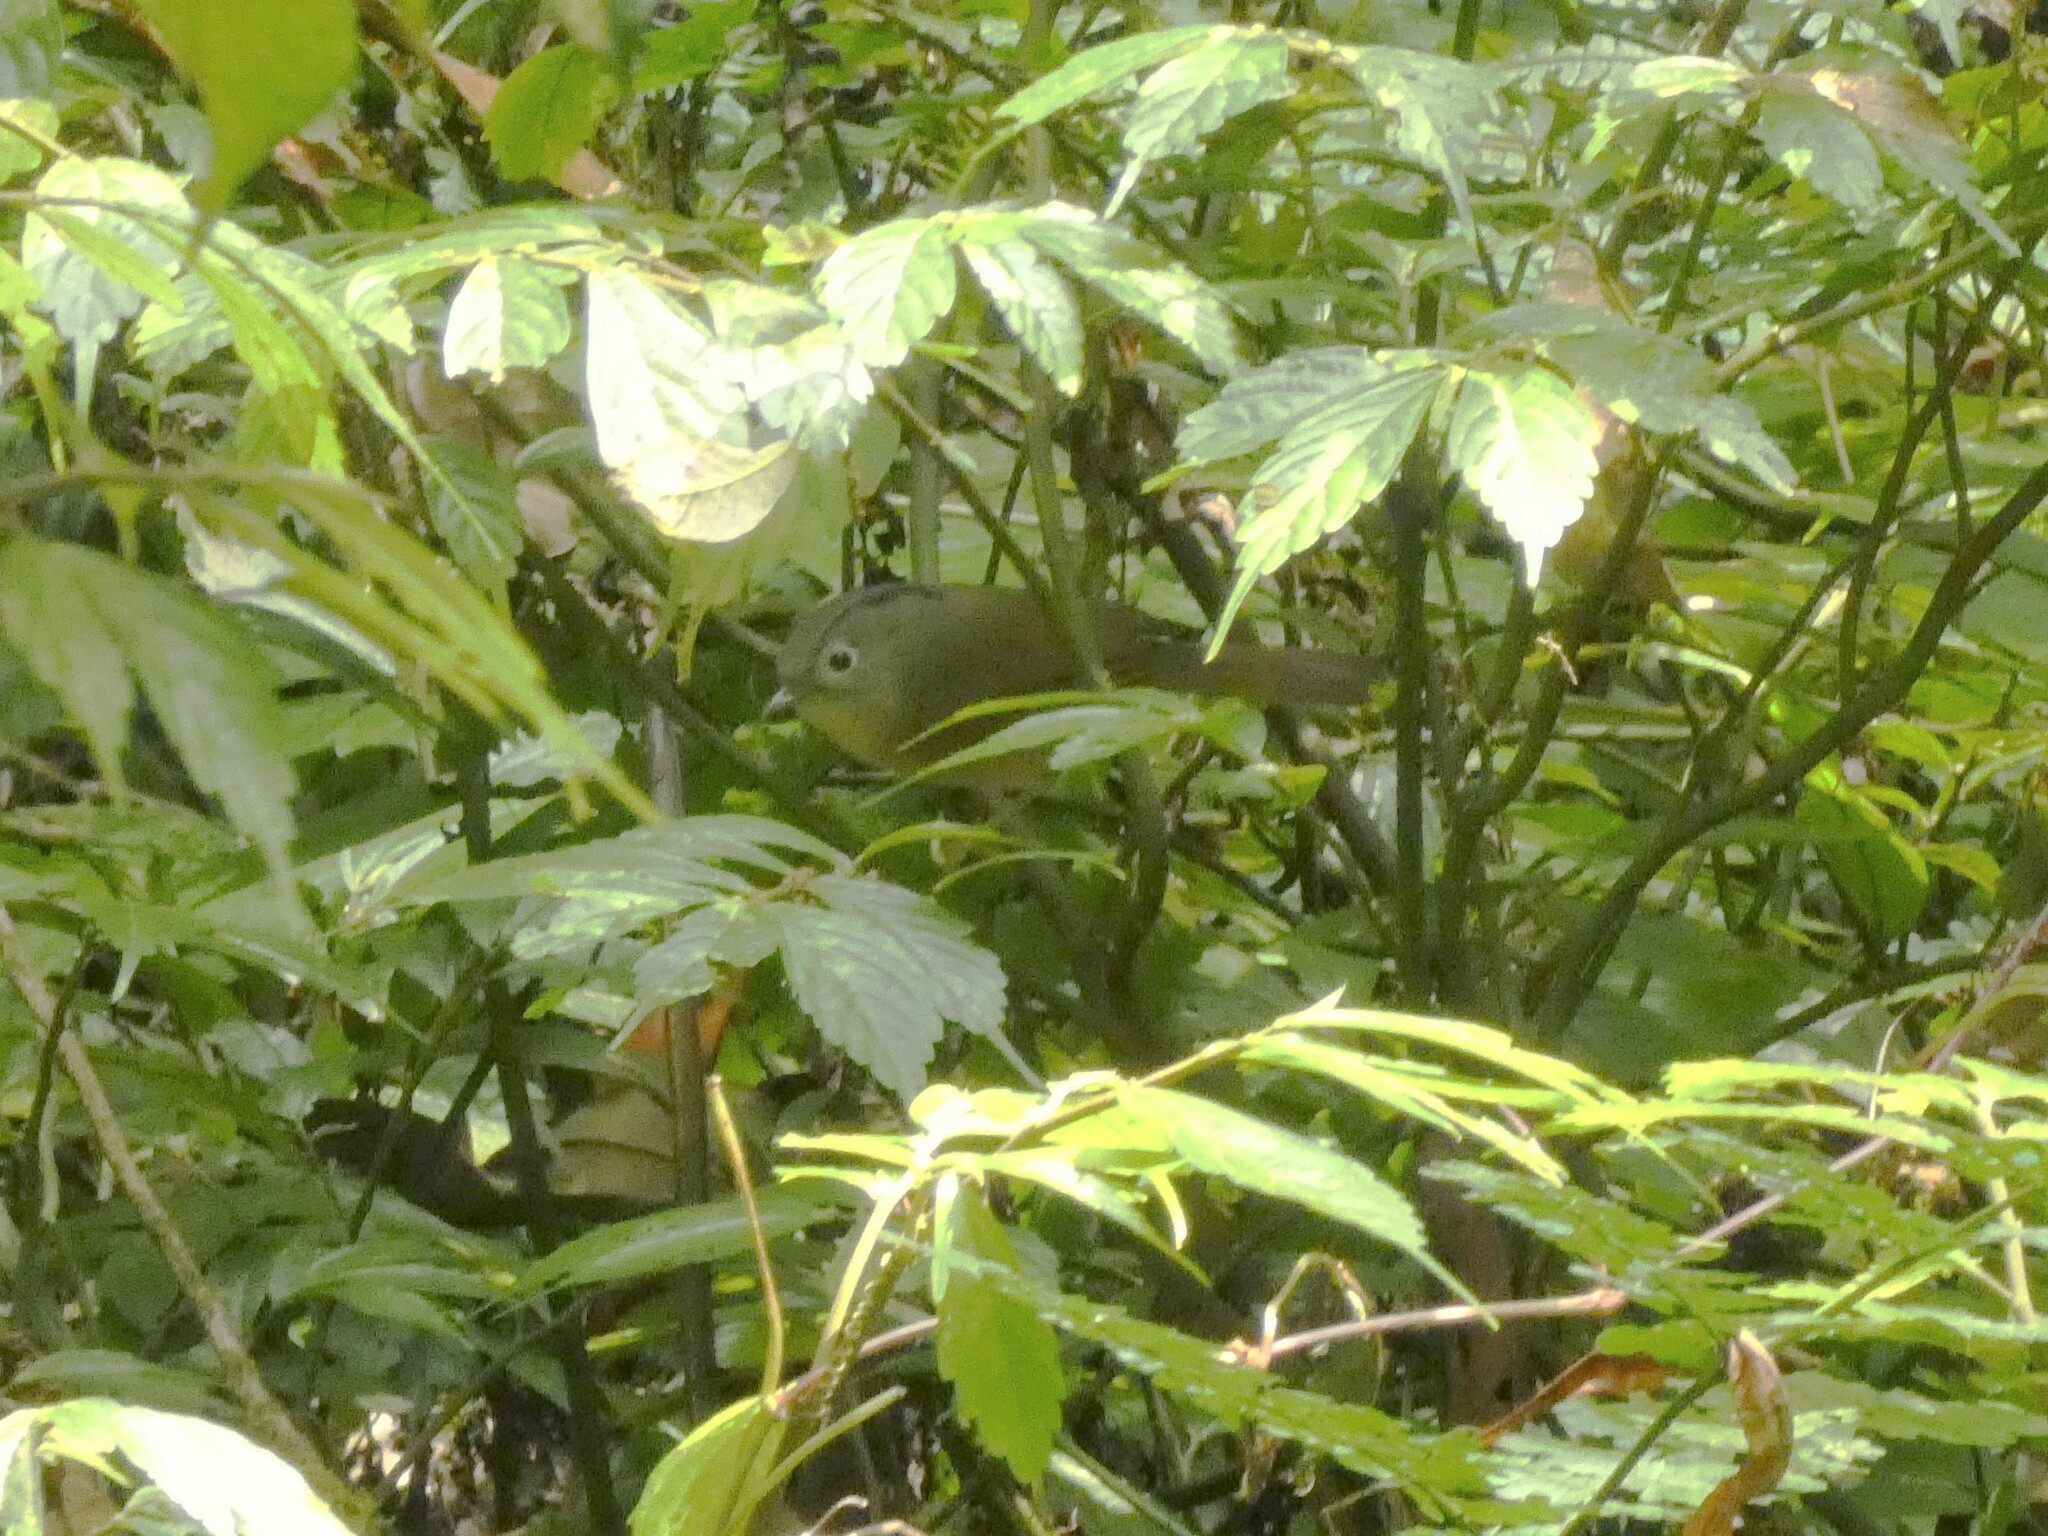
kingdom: Animalia
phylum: Chordata
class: Aves
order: Passeriformes
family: Pellorneidae
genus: Alcippe
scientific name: Alcippe fratercula
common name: Yunnan fulvetta
